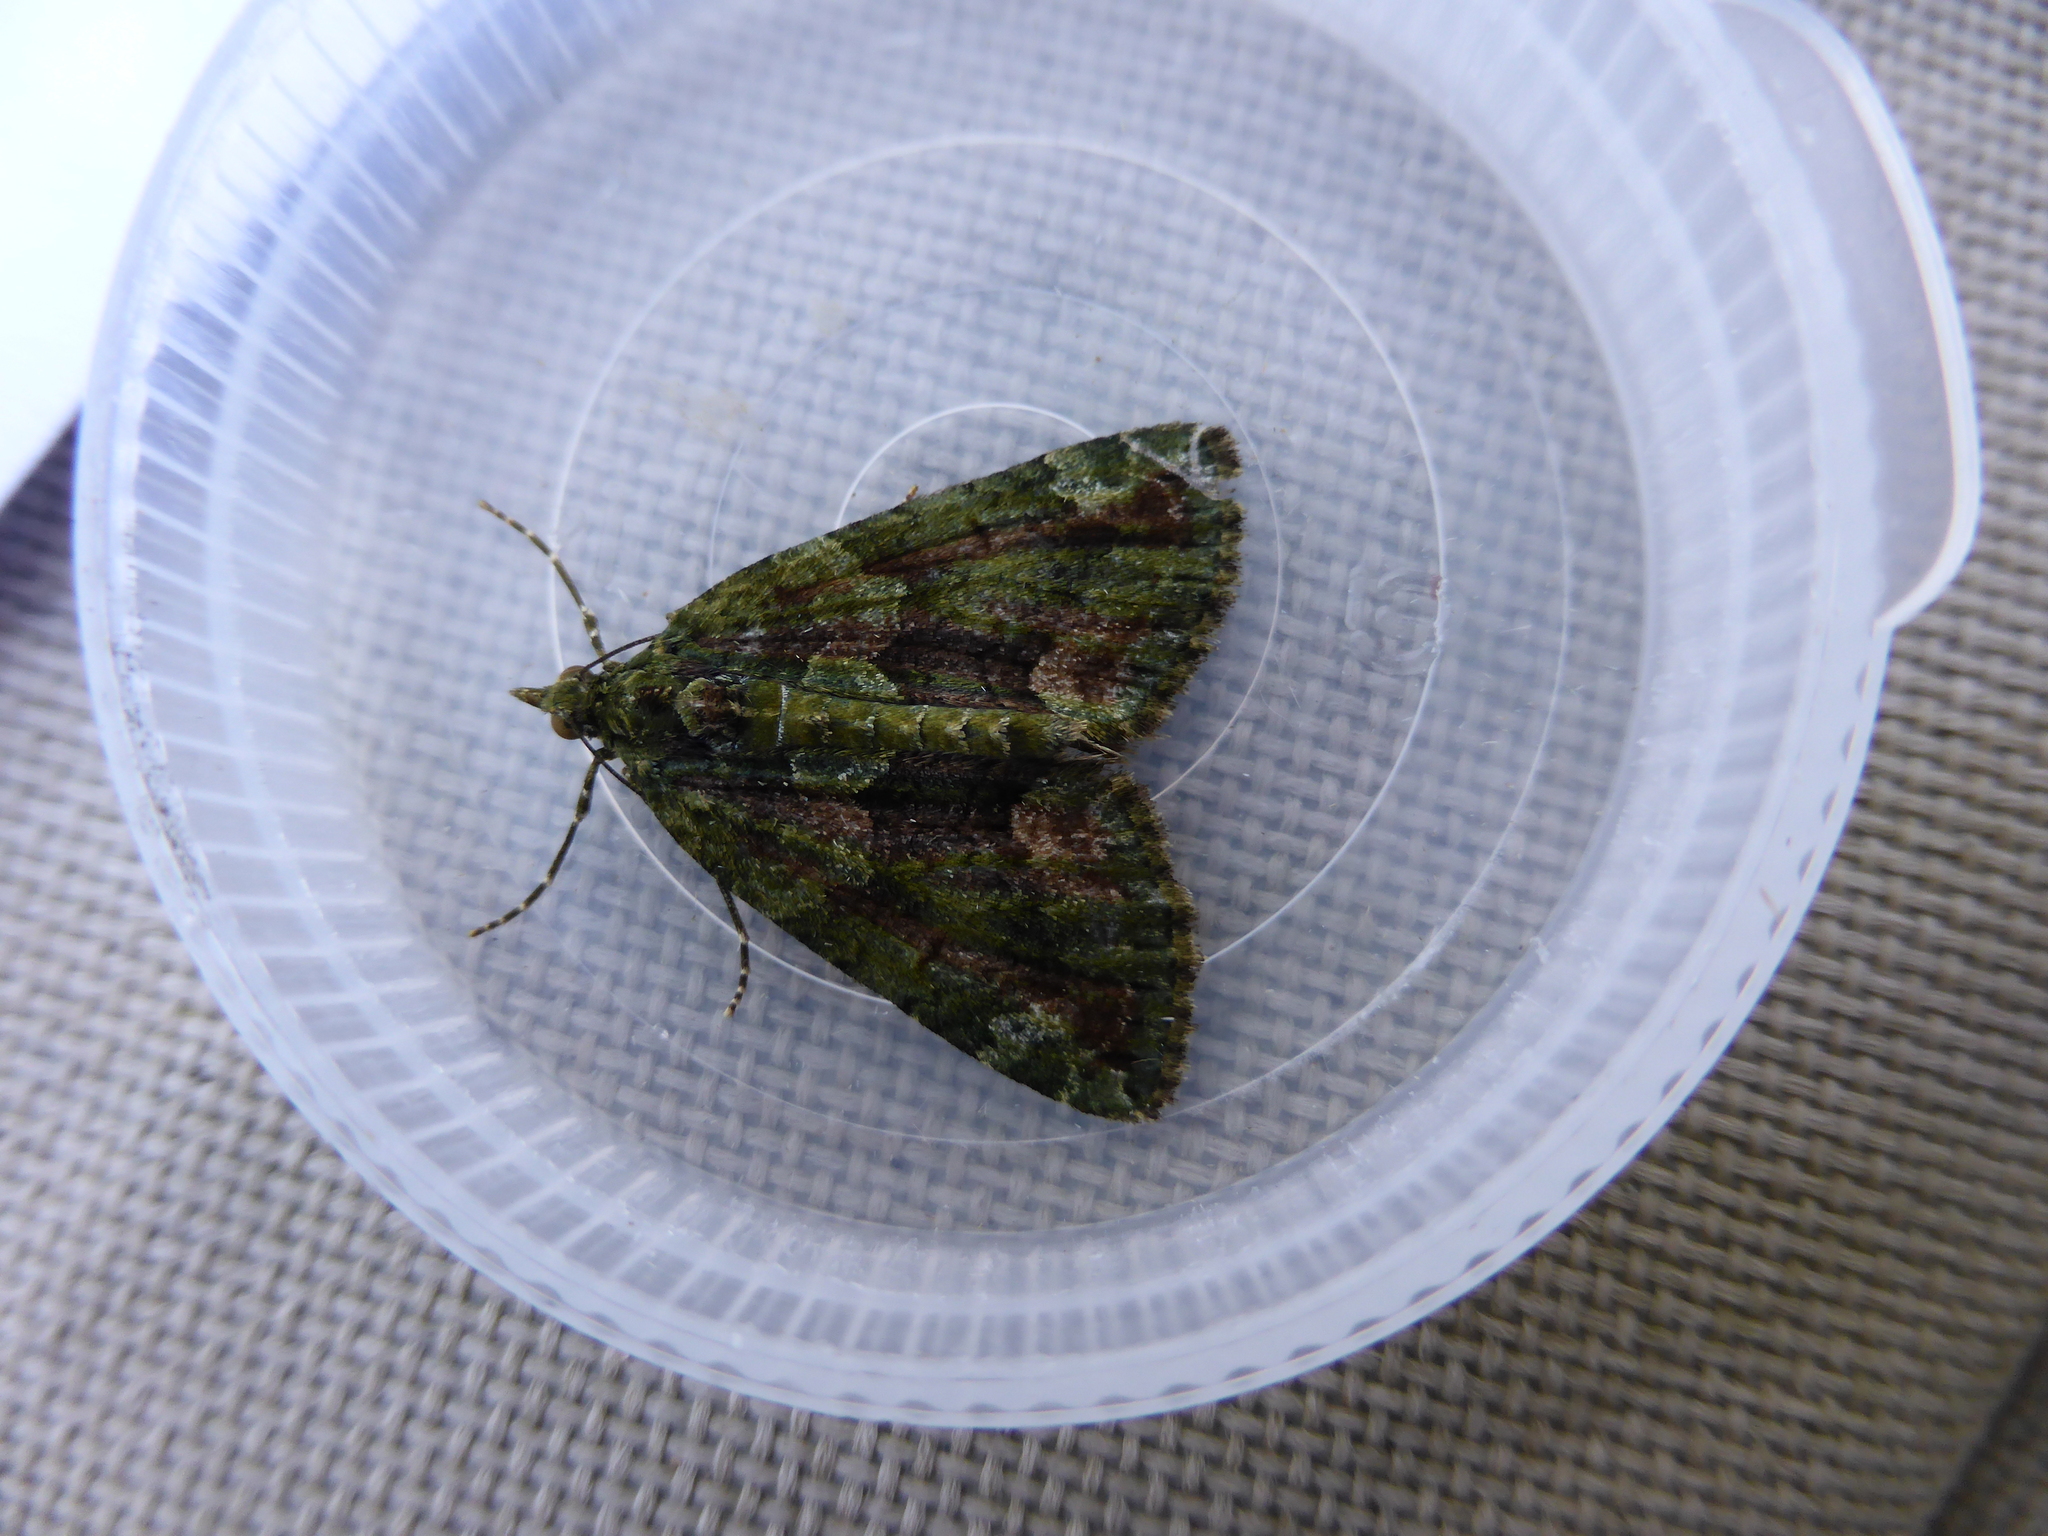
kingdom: Animalia
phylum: Arthropoda
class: Insecta
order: Lepidoptera
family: Geometridae
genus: Chloroclysta
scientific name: Chloroclysta siterata
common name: Red-green carpet
